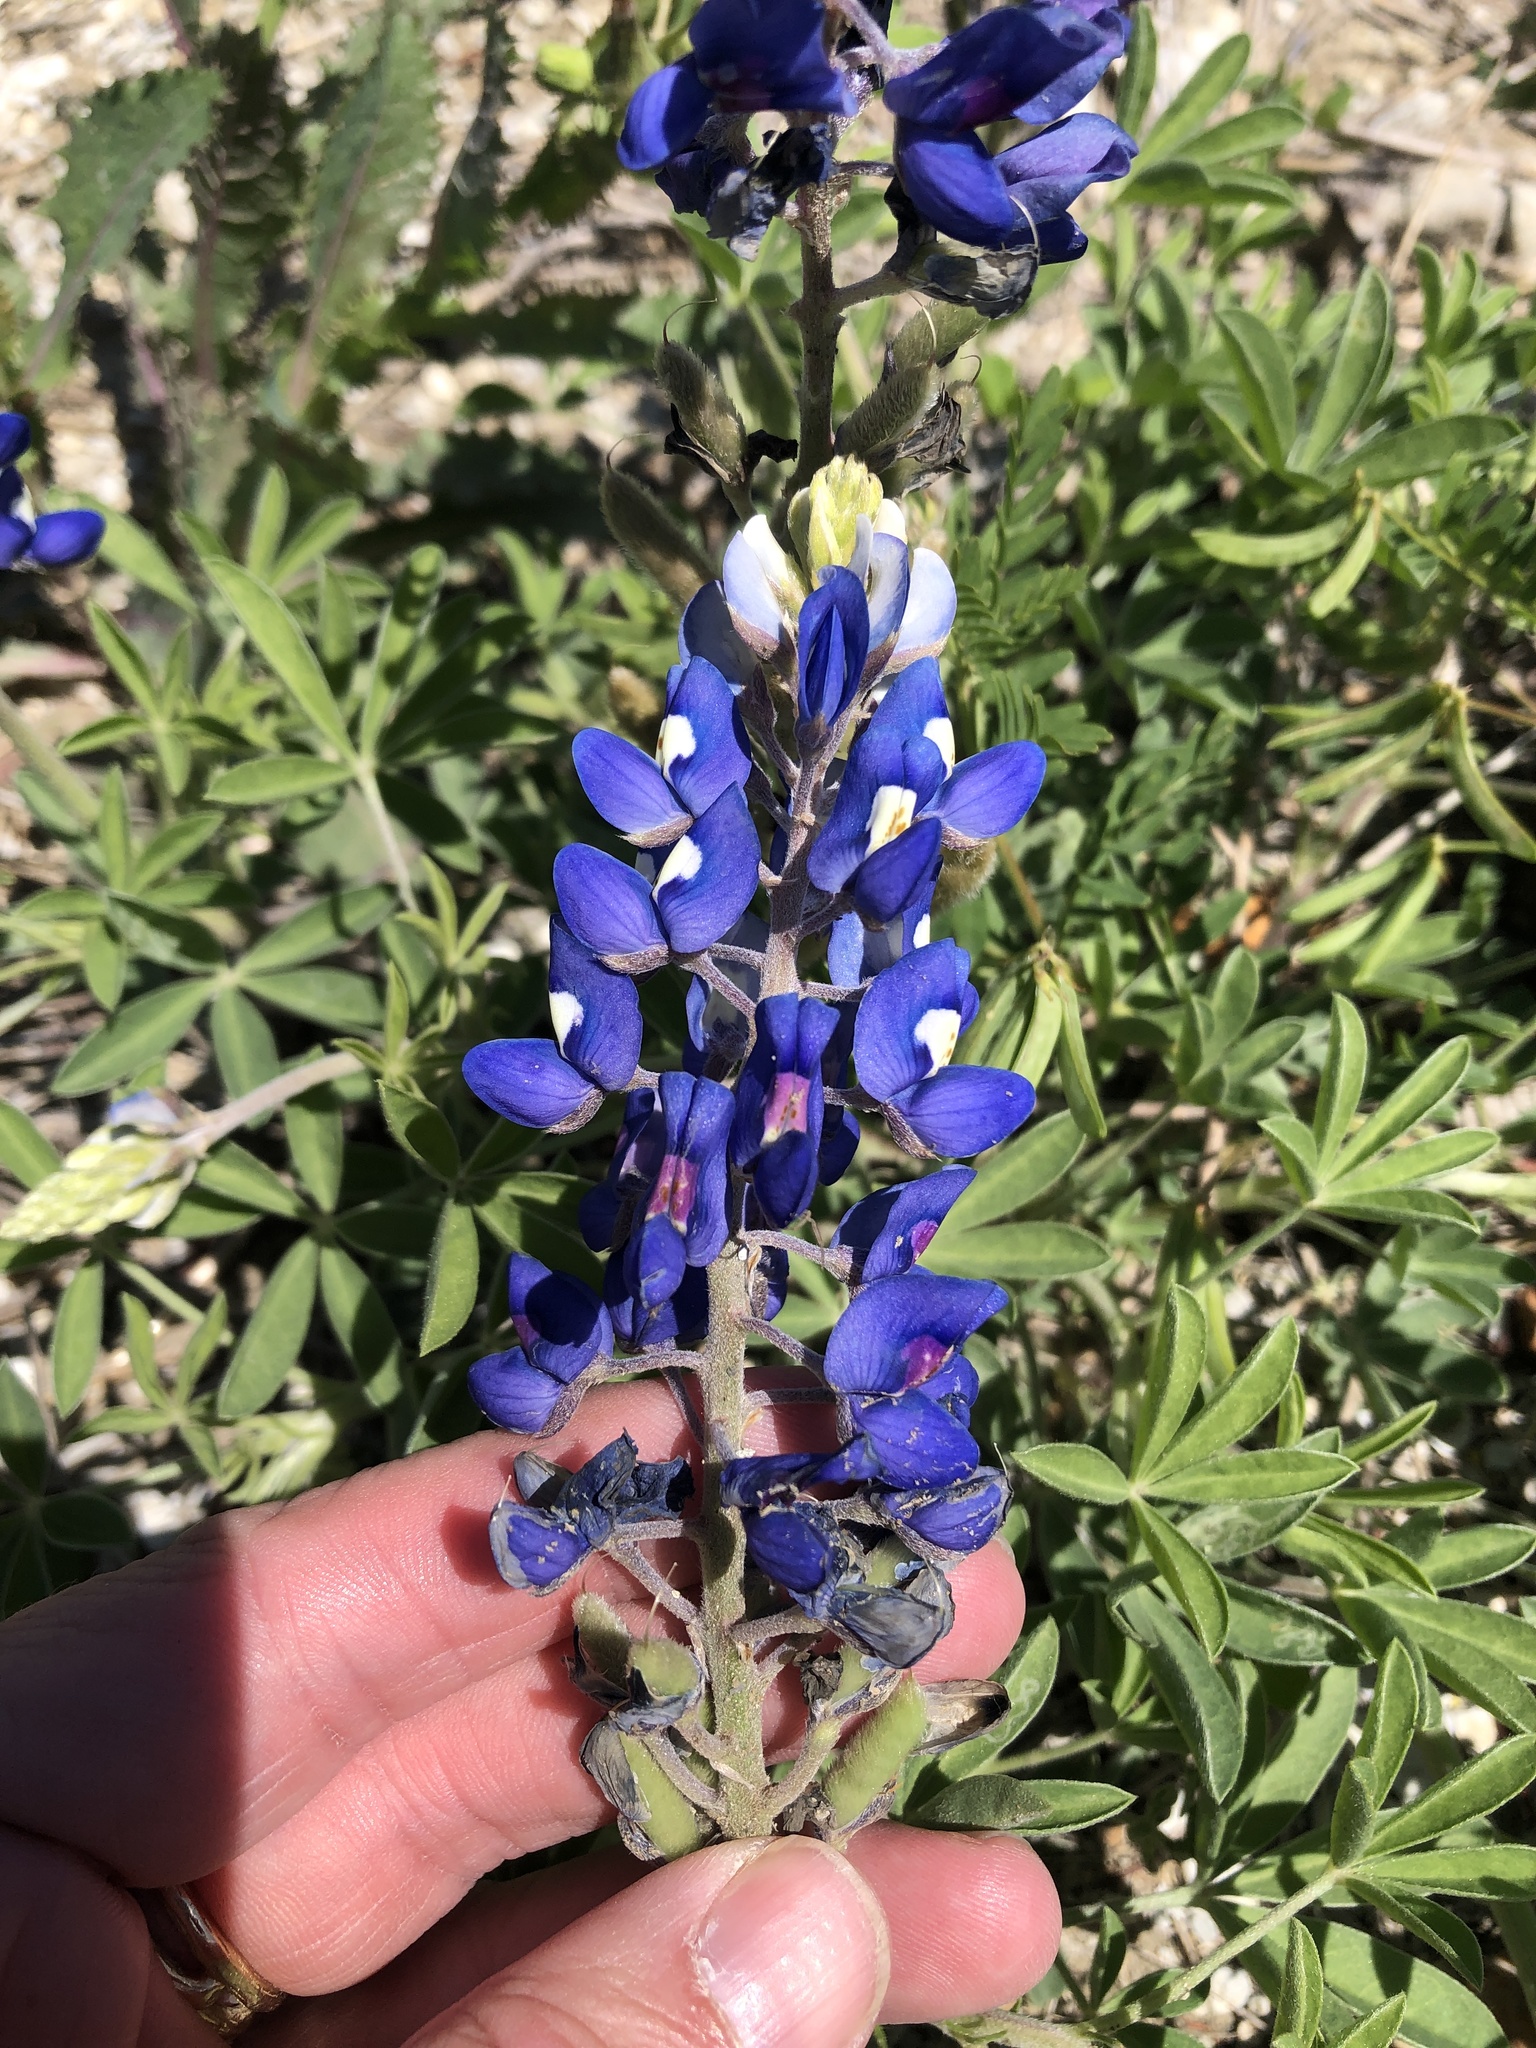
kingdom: Plantae
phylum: Tracheophyta
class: Magnoliopsida
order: Fabales
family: Fabaceae
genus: Lupinus
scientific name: Lupinus texensis
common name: Texas bluebonnet
